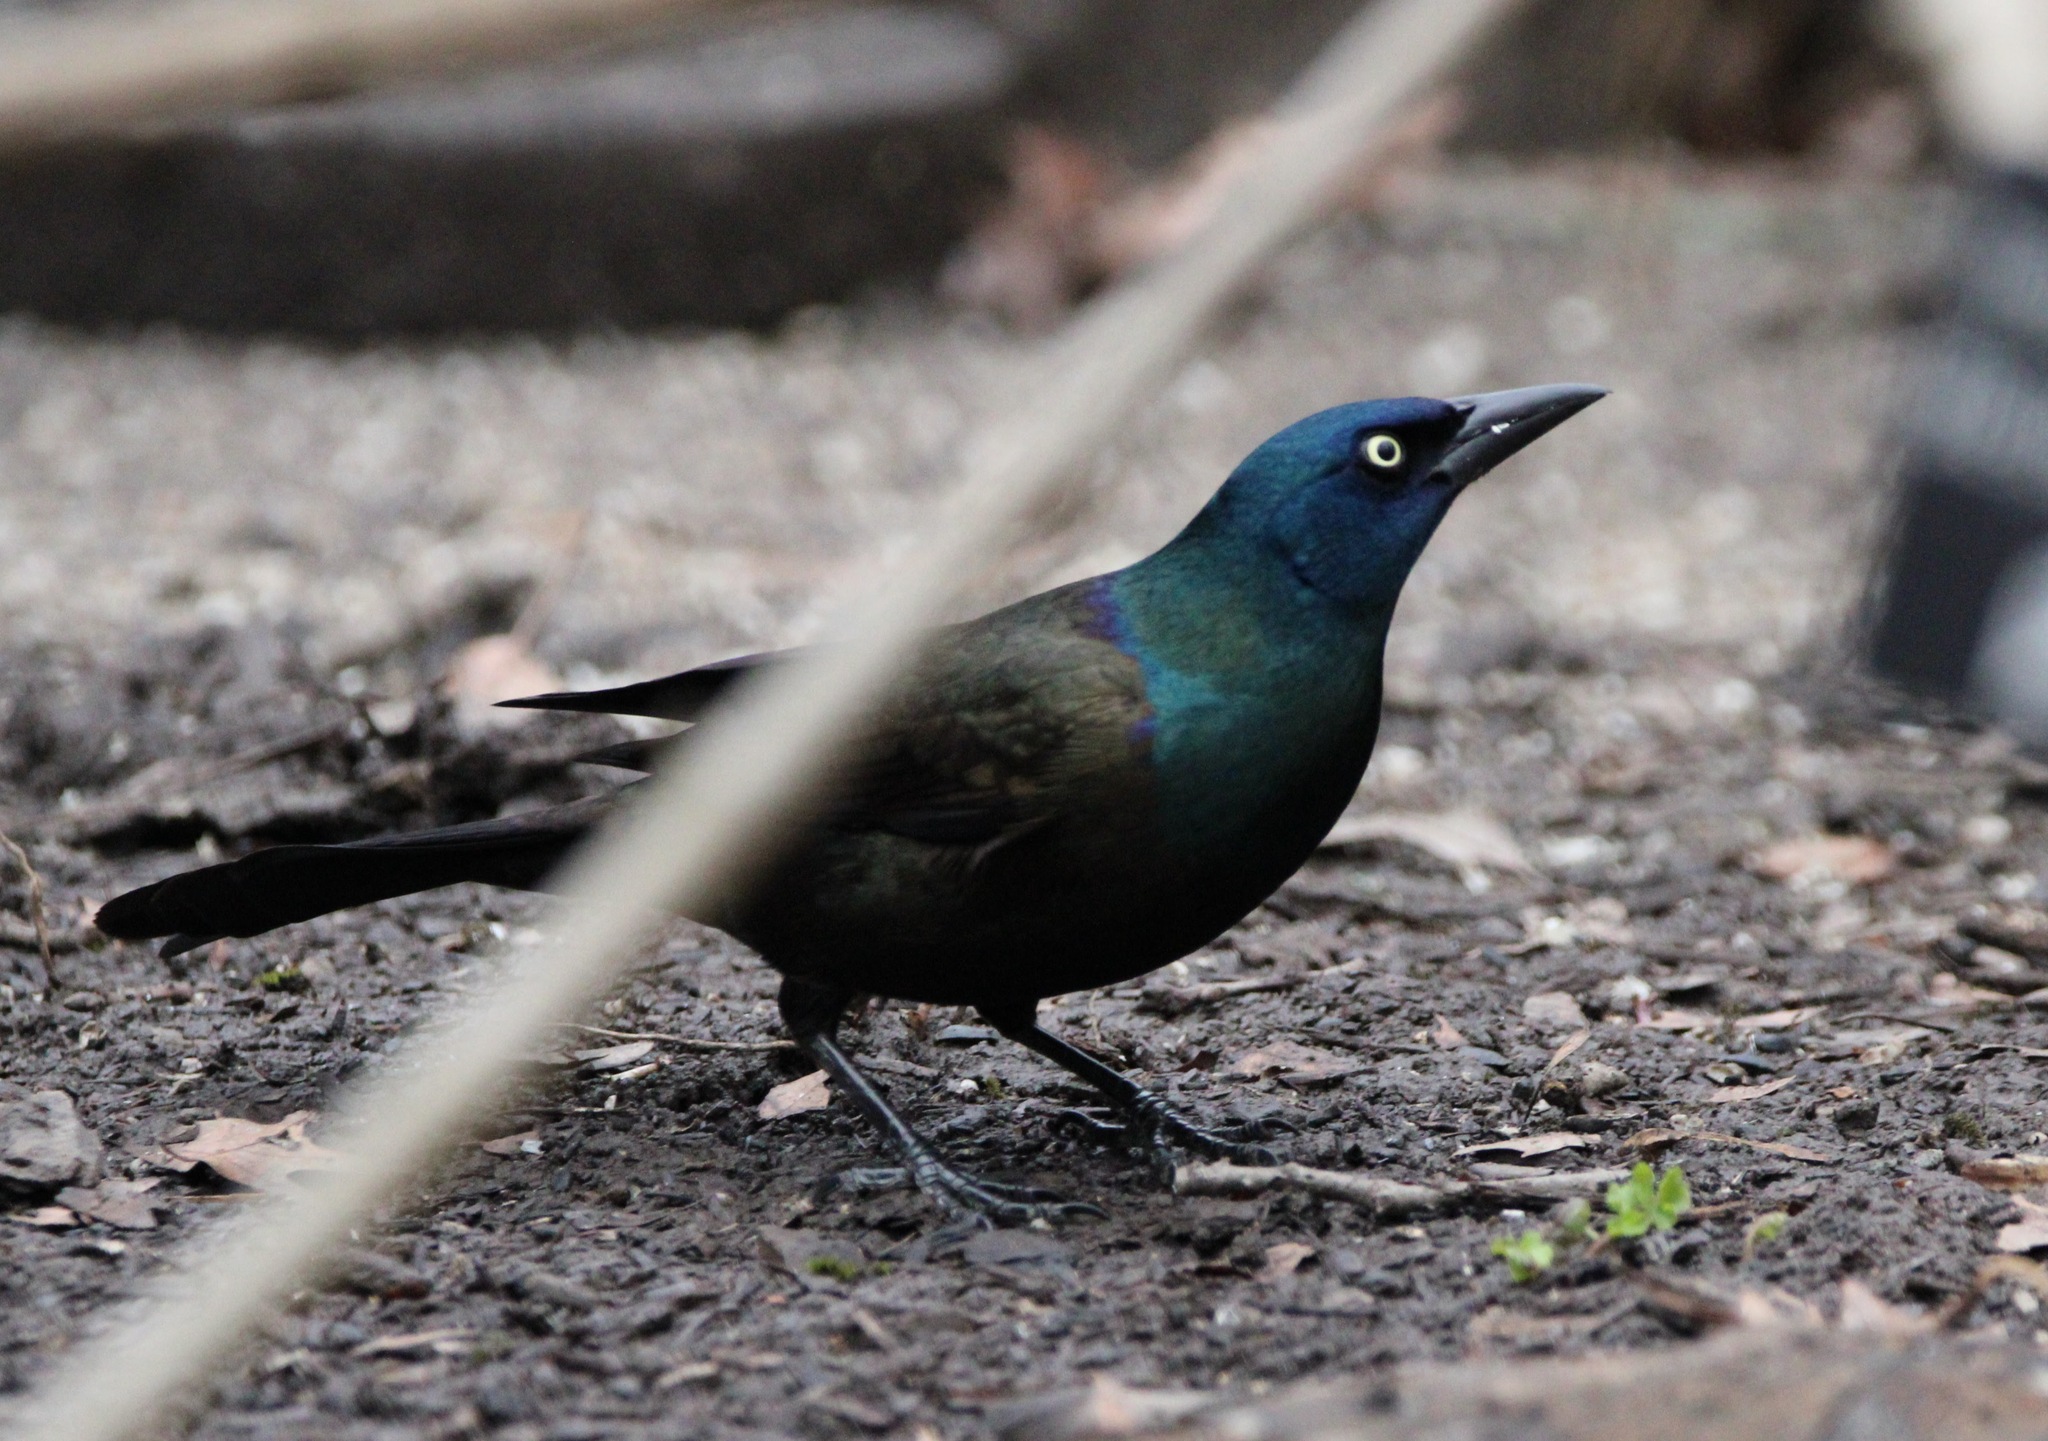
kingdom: Animalia
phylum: Chordata
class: Aves
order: Passeriformes
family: Icteridae
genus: Quiscalus
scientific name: Quiscalus quiscula
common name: Common grackle
